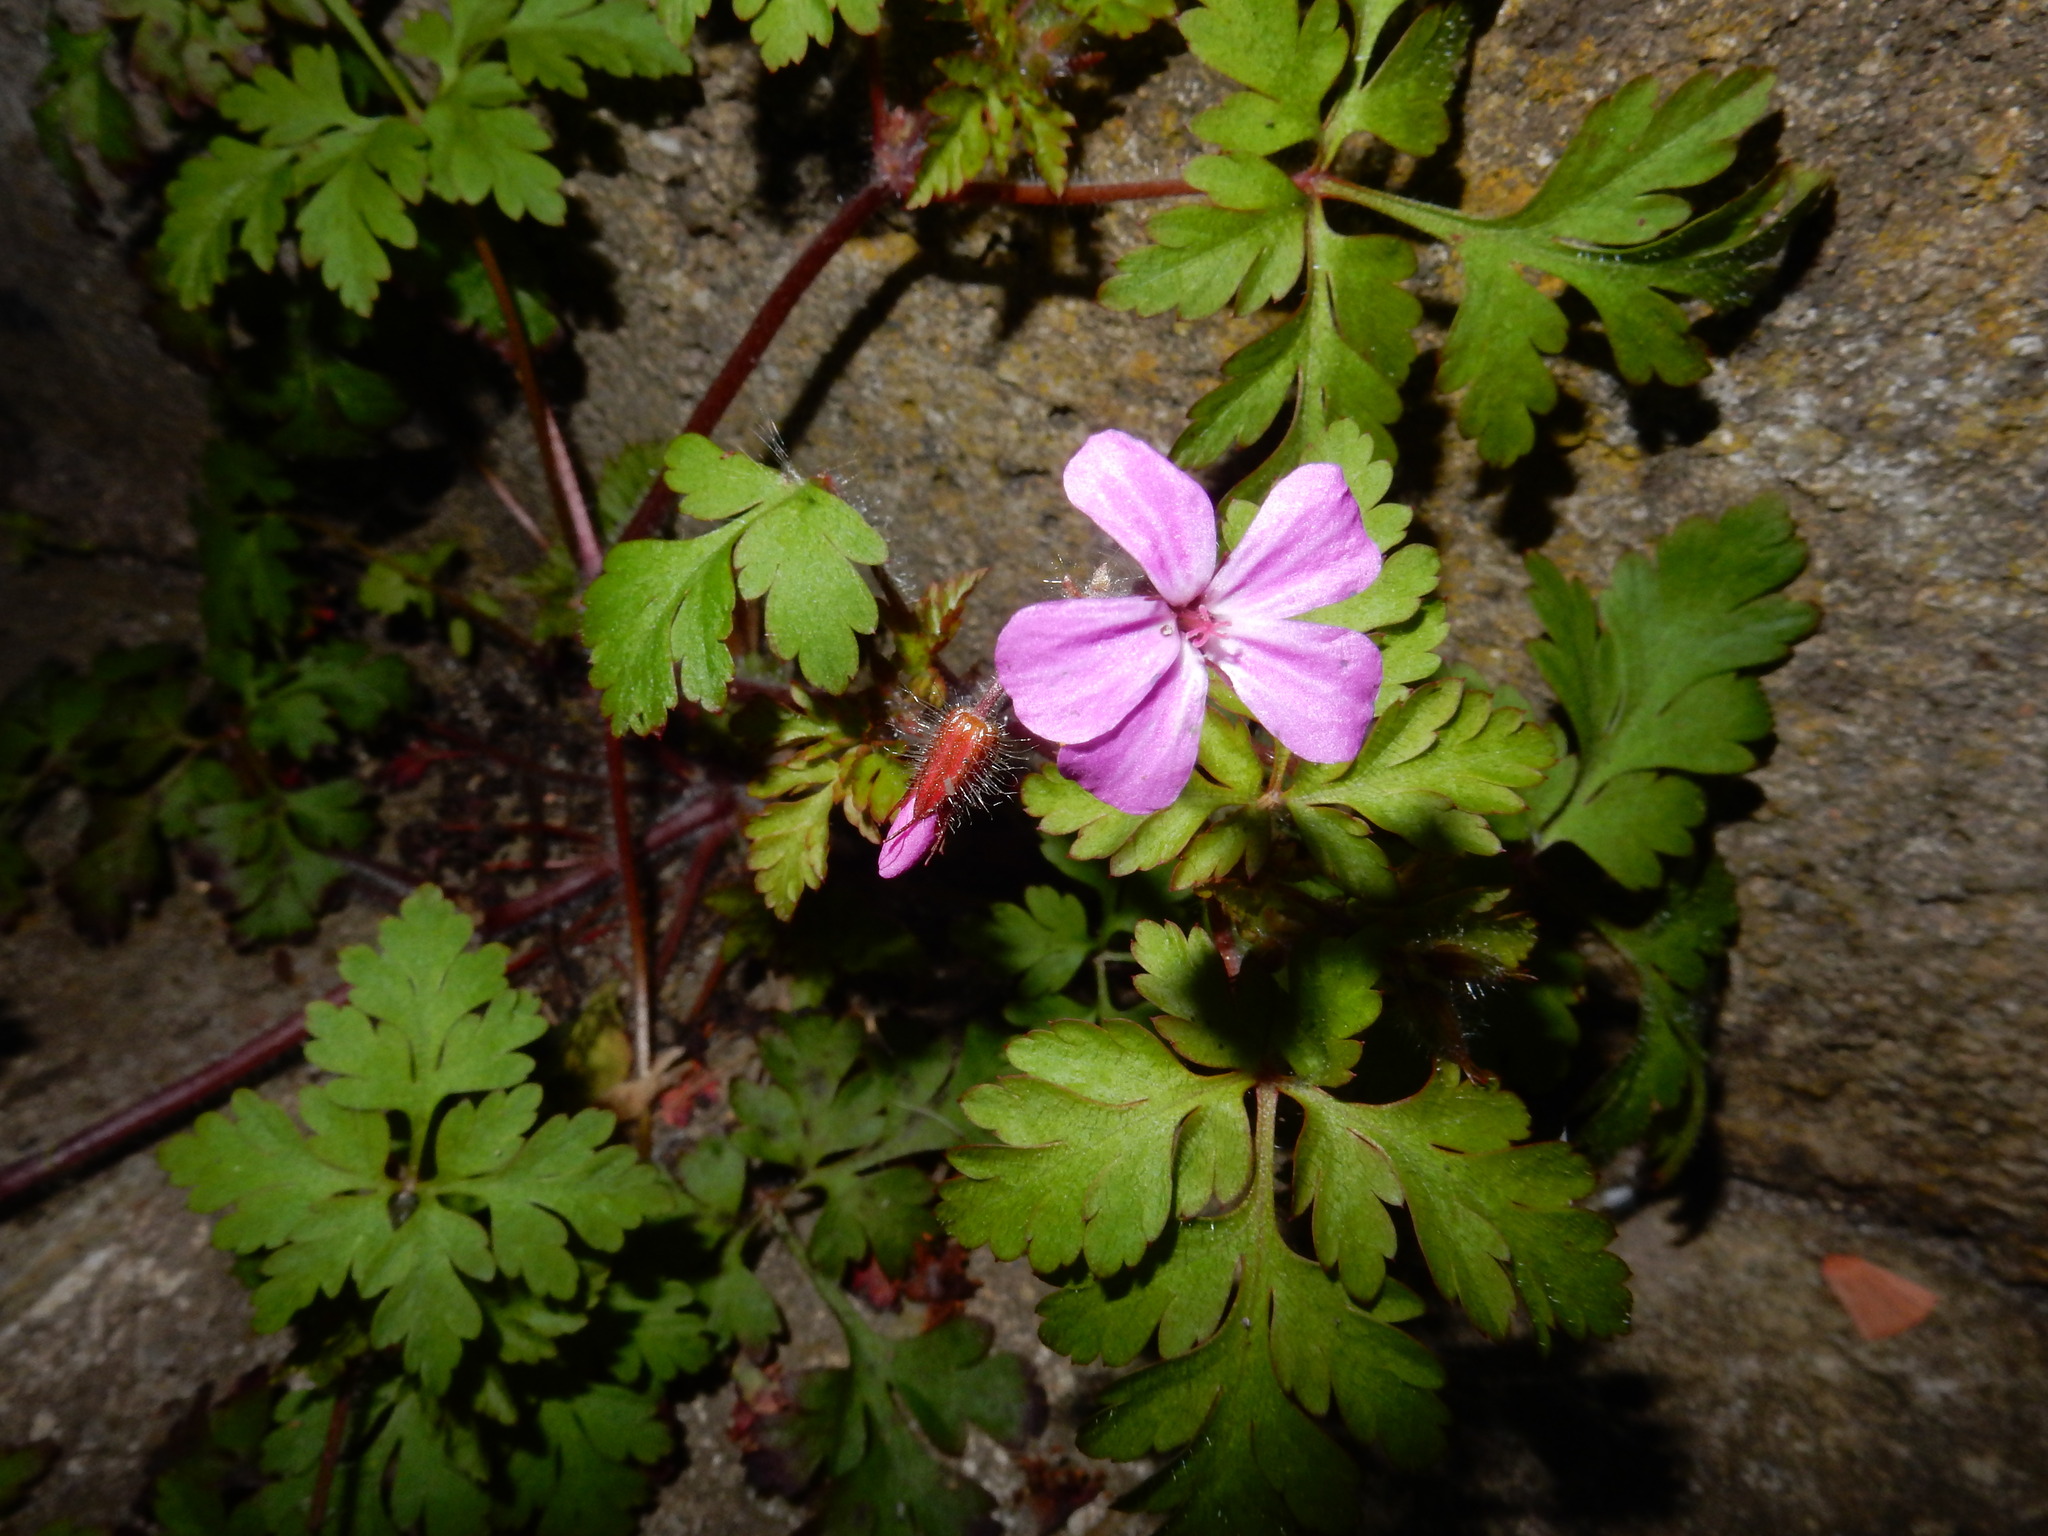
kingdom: Plantae
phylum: Tracheophyta
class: Magnoliopsida
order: Geraniales
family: Geraniaceae
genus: Geranium
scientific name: Geranium robertianum
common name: Herb-robert
